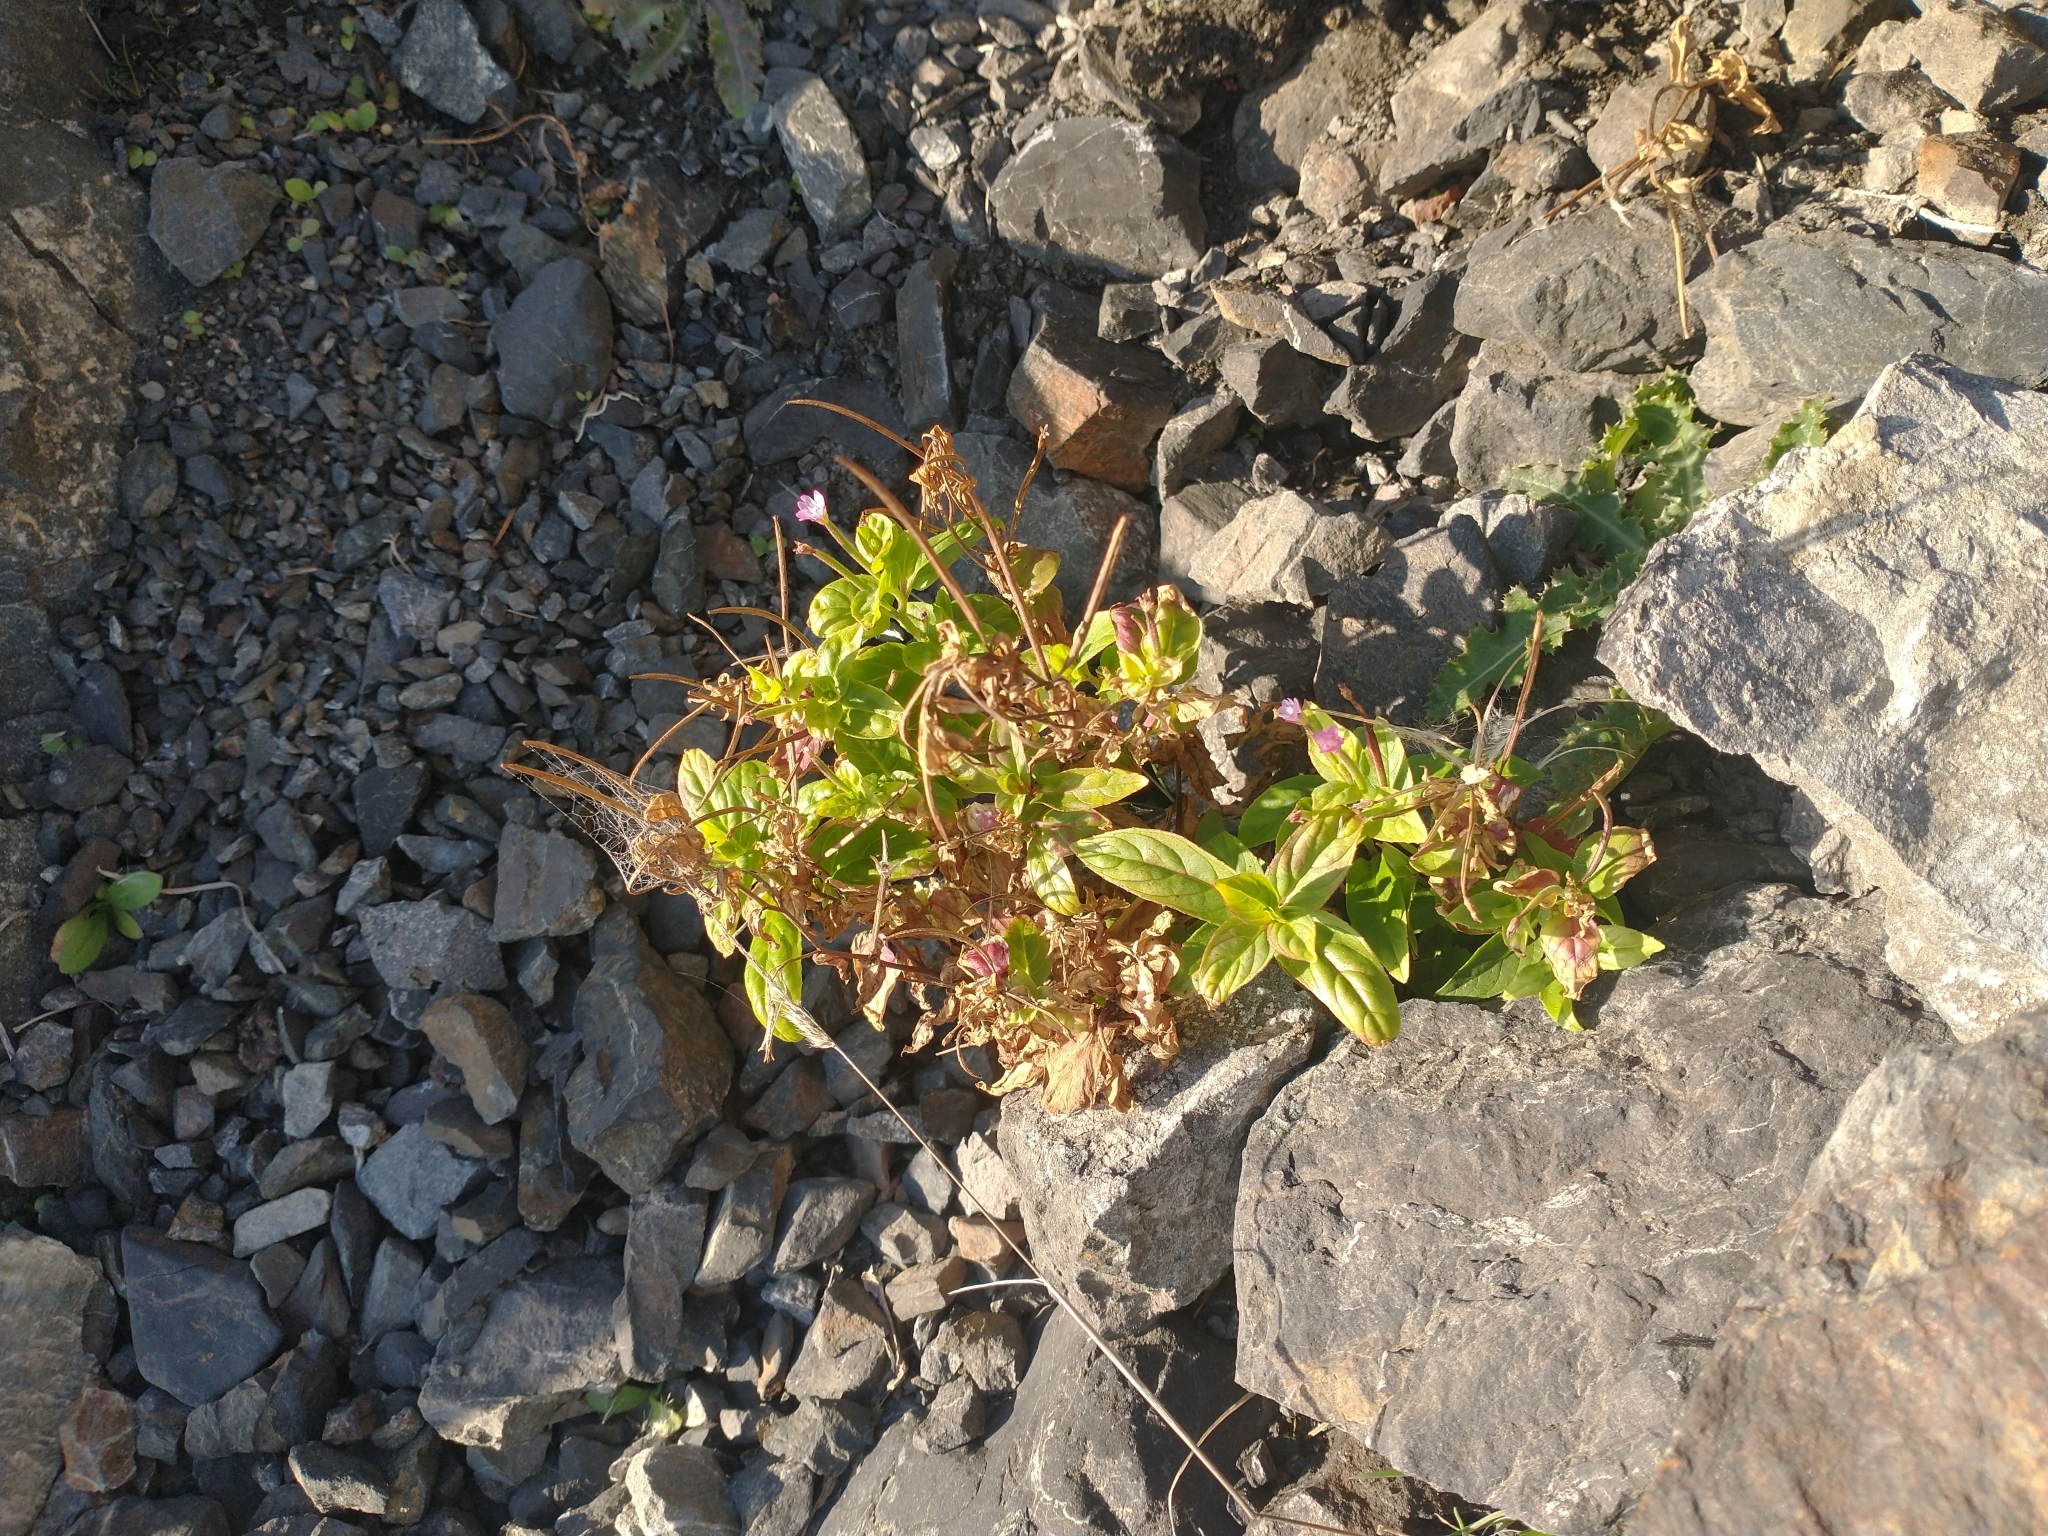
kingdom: Plantae
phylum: Tracheophyta
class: Magnoliopsida
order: Myrtales
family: Onagraceae
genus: Epilobium
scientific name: Epilobium ciliatum
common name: American willowherb
